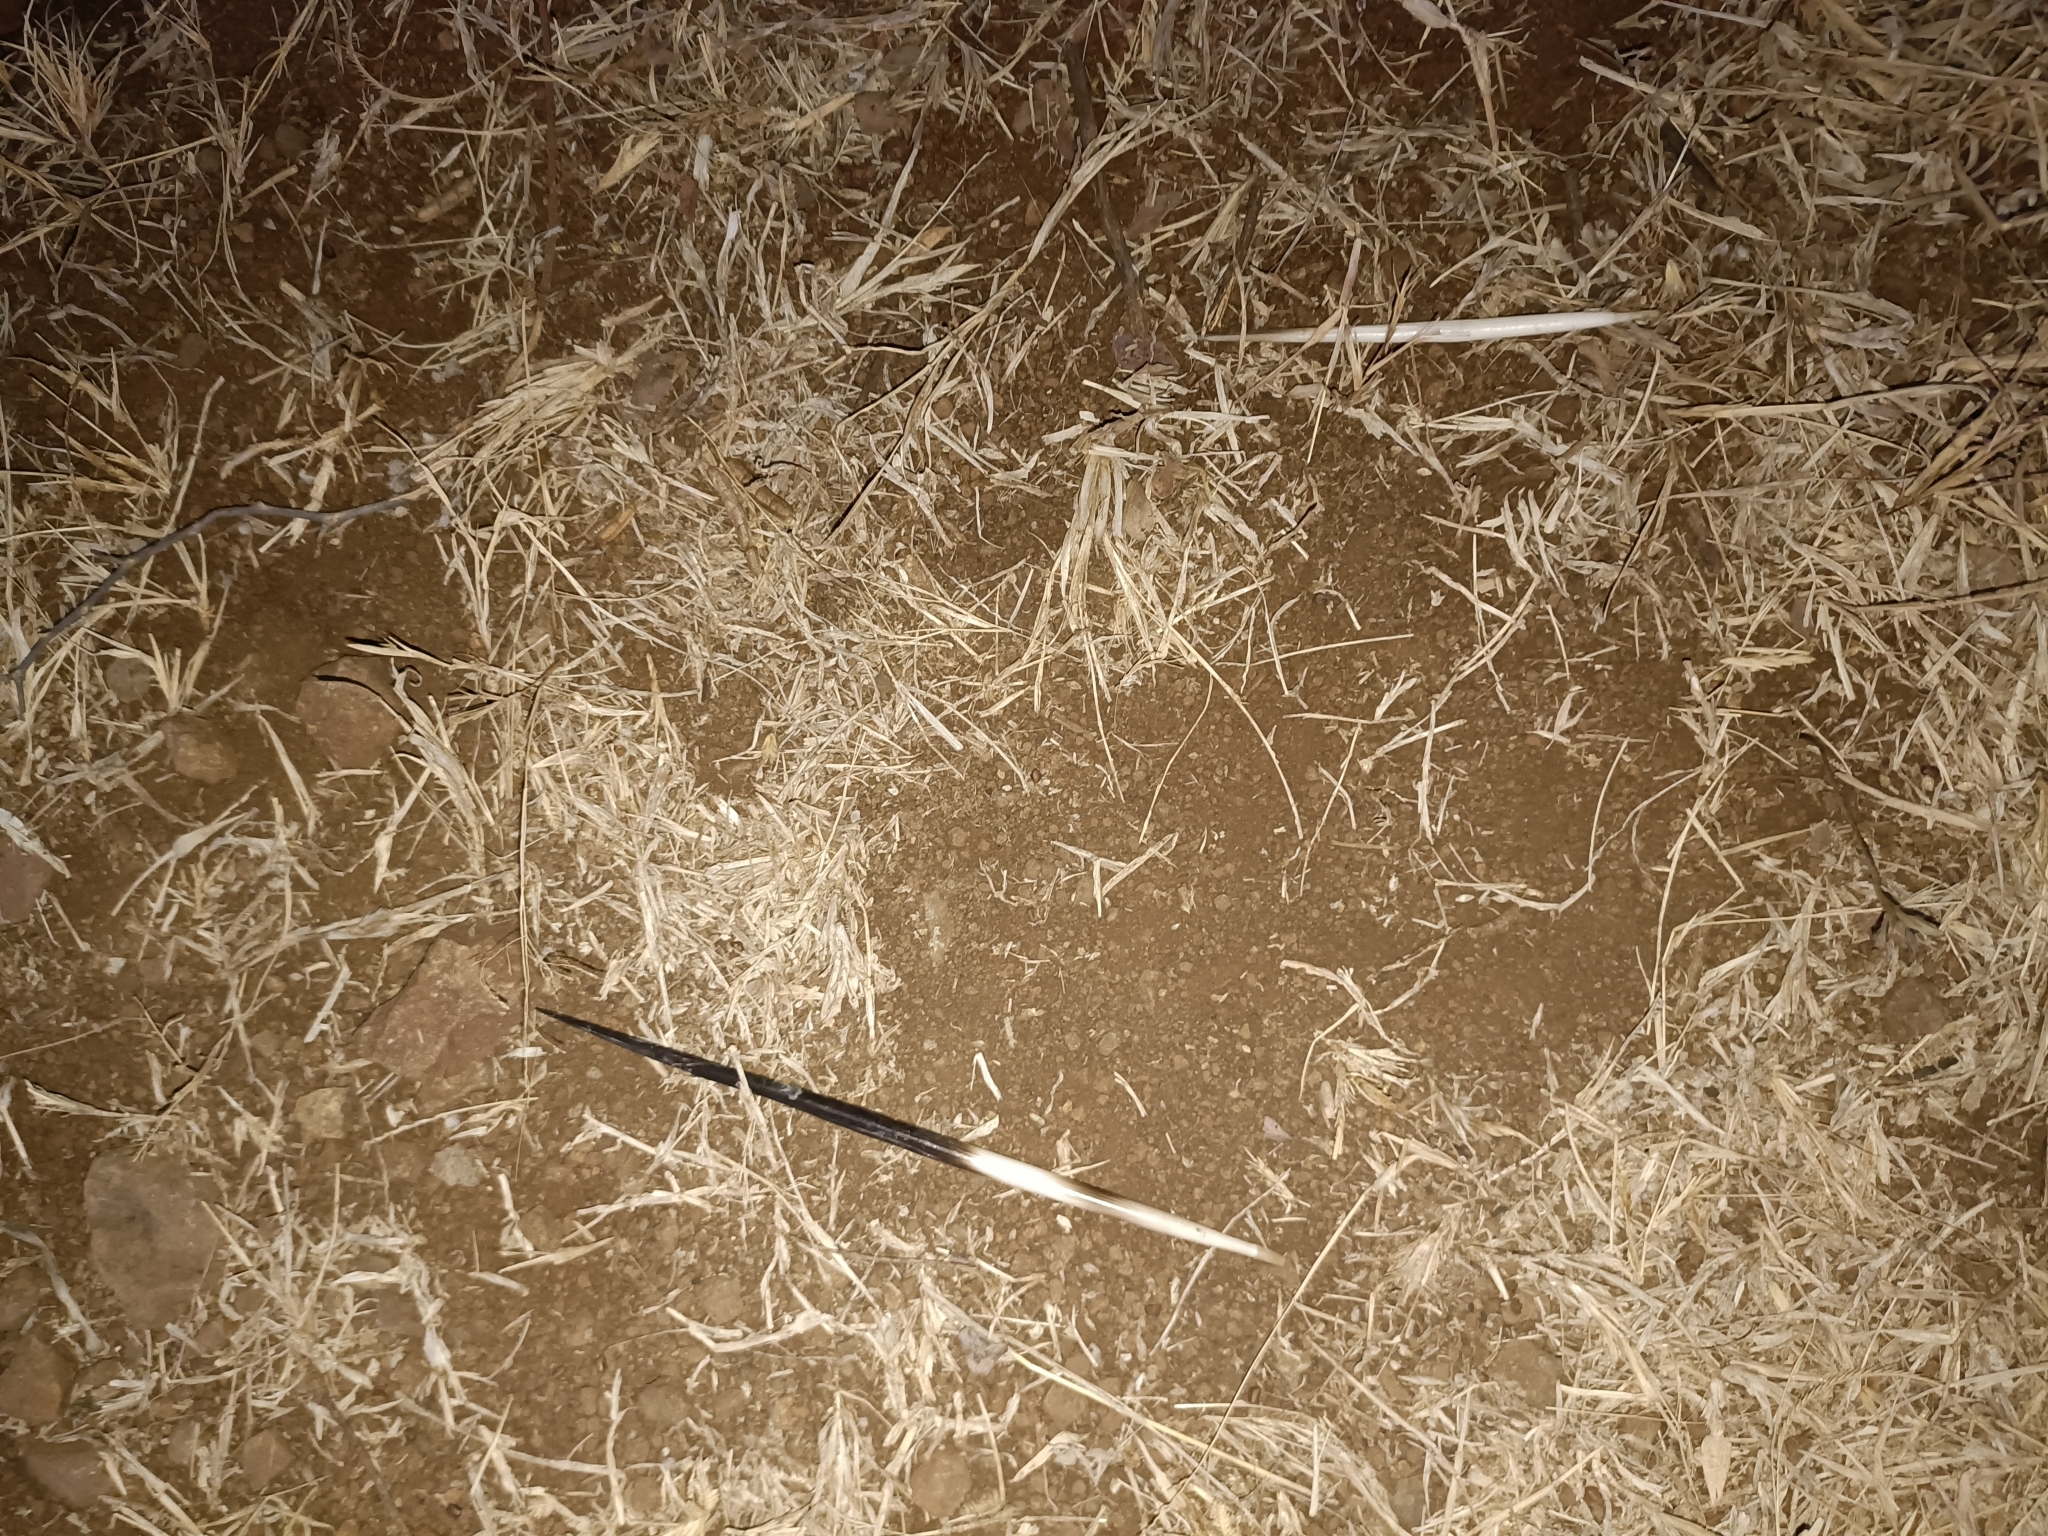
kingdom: Animalia
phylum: Chordata
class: Mammalia
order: Rodentia
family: Hystricidae
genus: Hystrix
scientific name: Hystrix indica
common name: Indian crested porcupine
